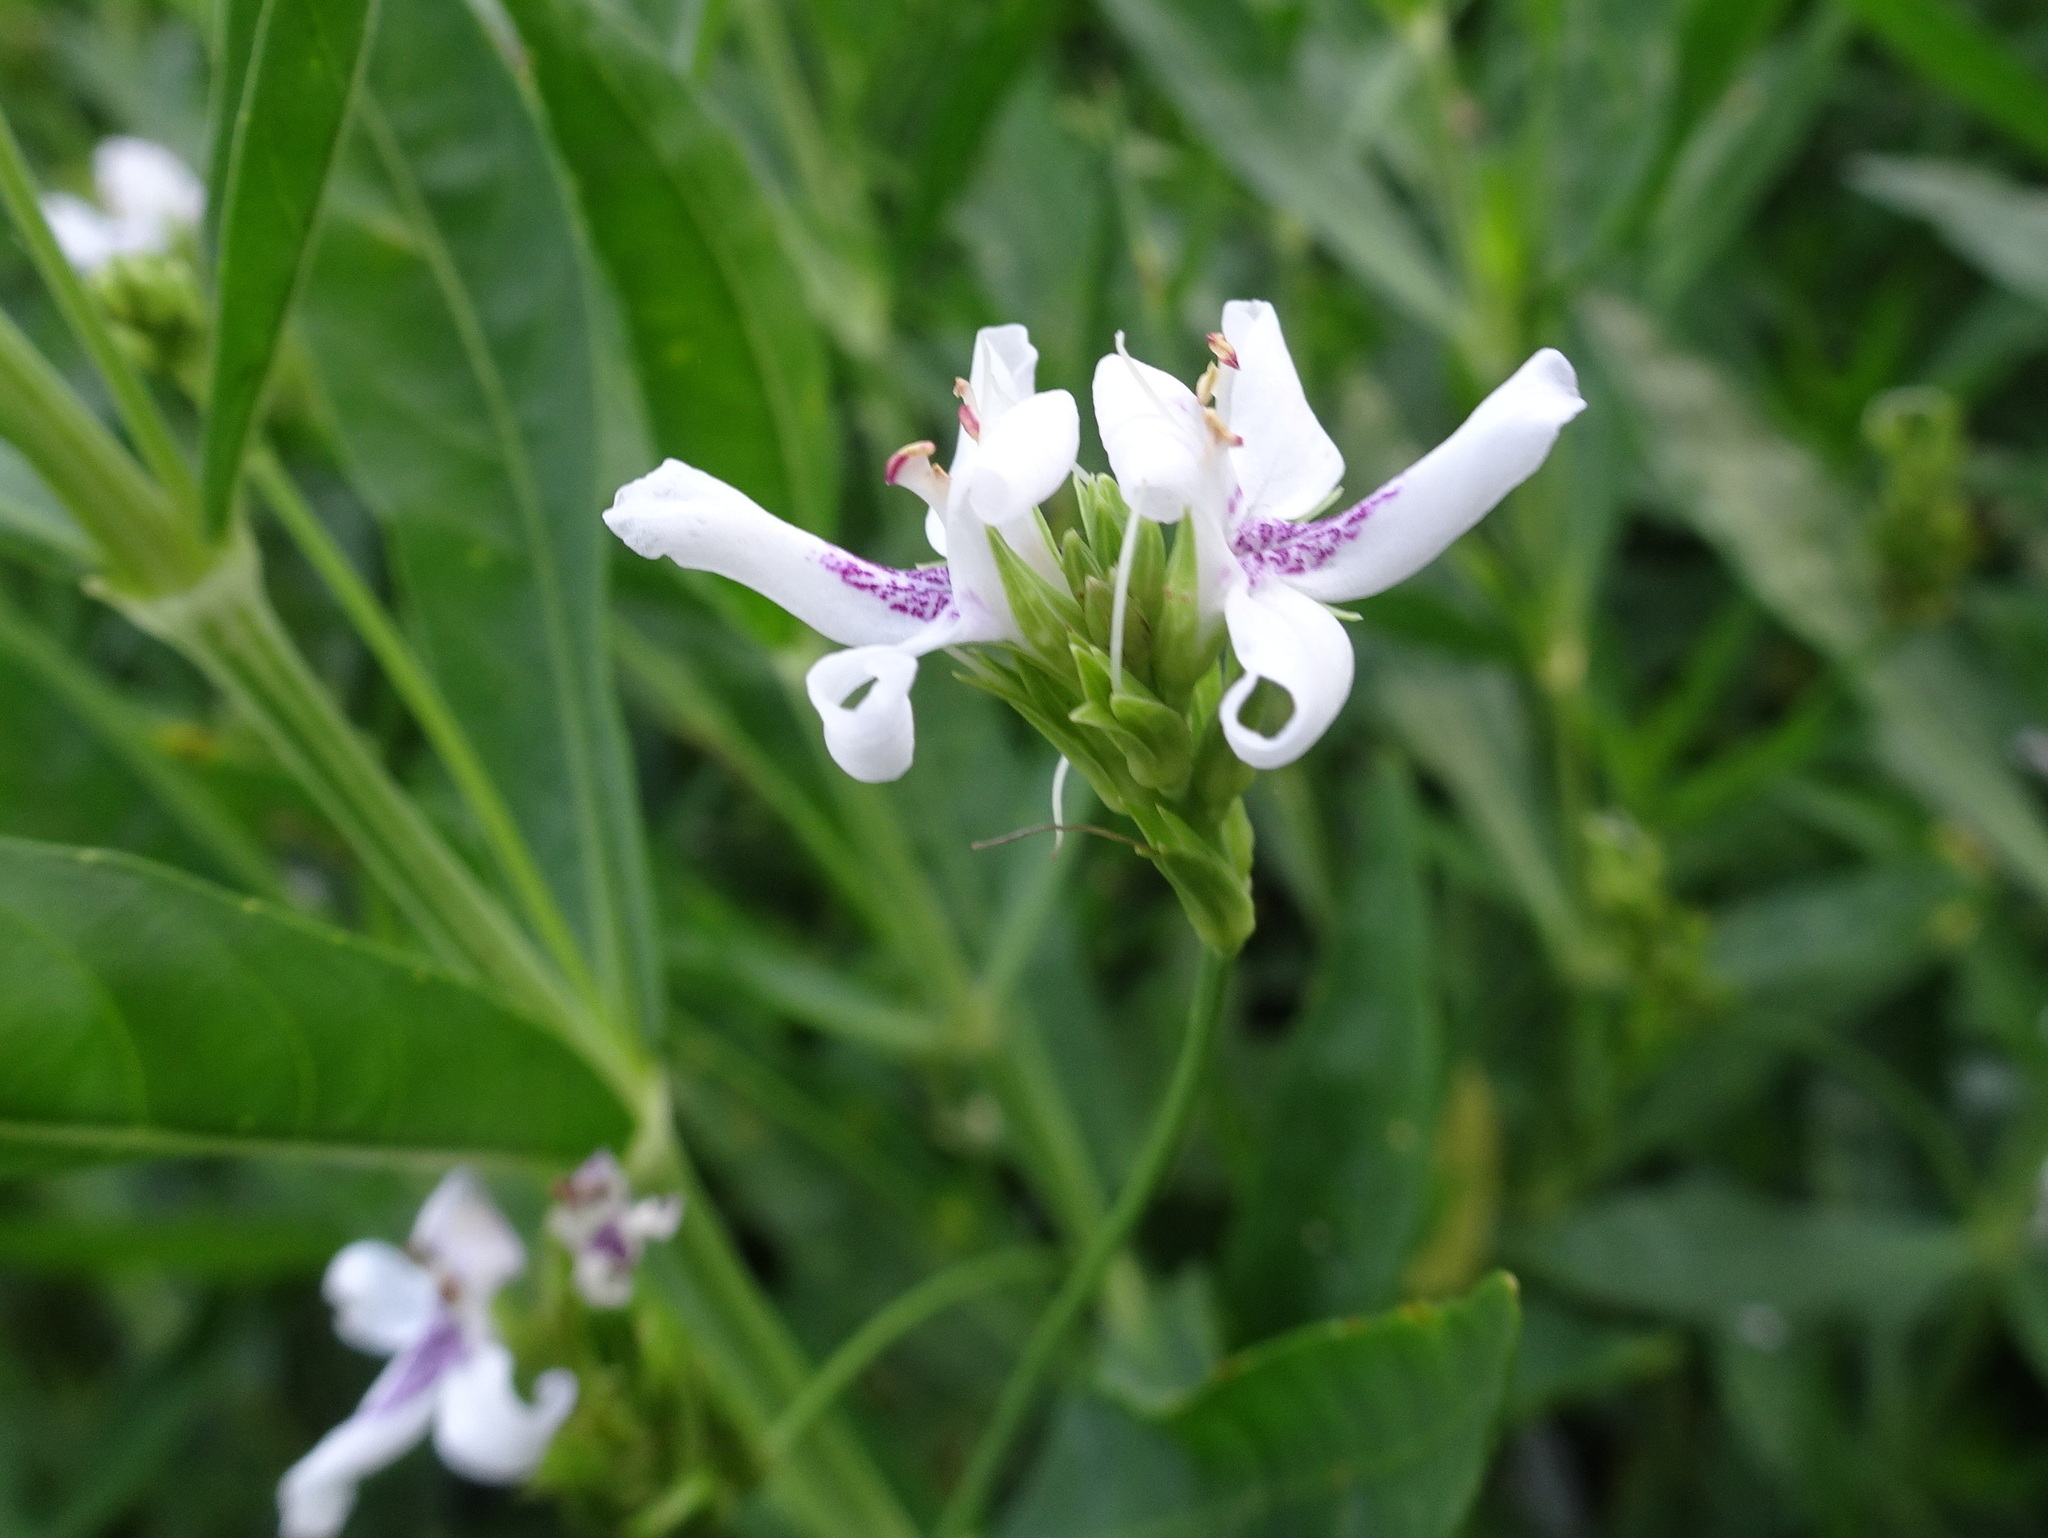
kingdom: Plantae
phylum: Tracheophyta
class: Magnoliopsida
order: Lamiales
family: Acanthaceae
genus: Dianthera
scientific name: Dianthera americana
